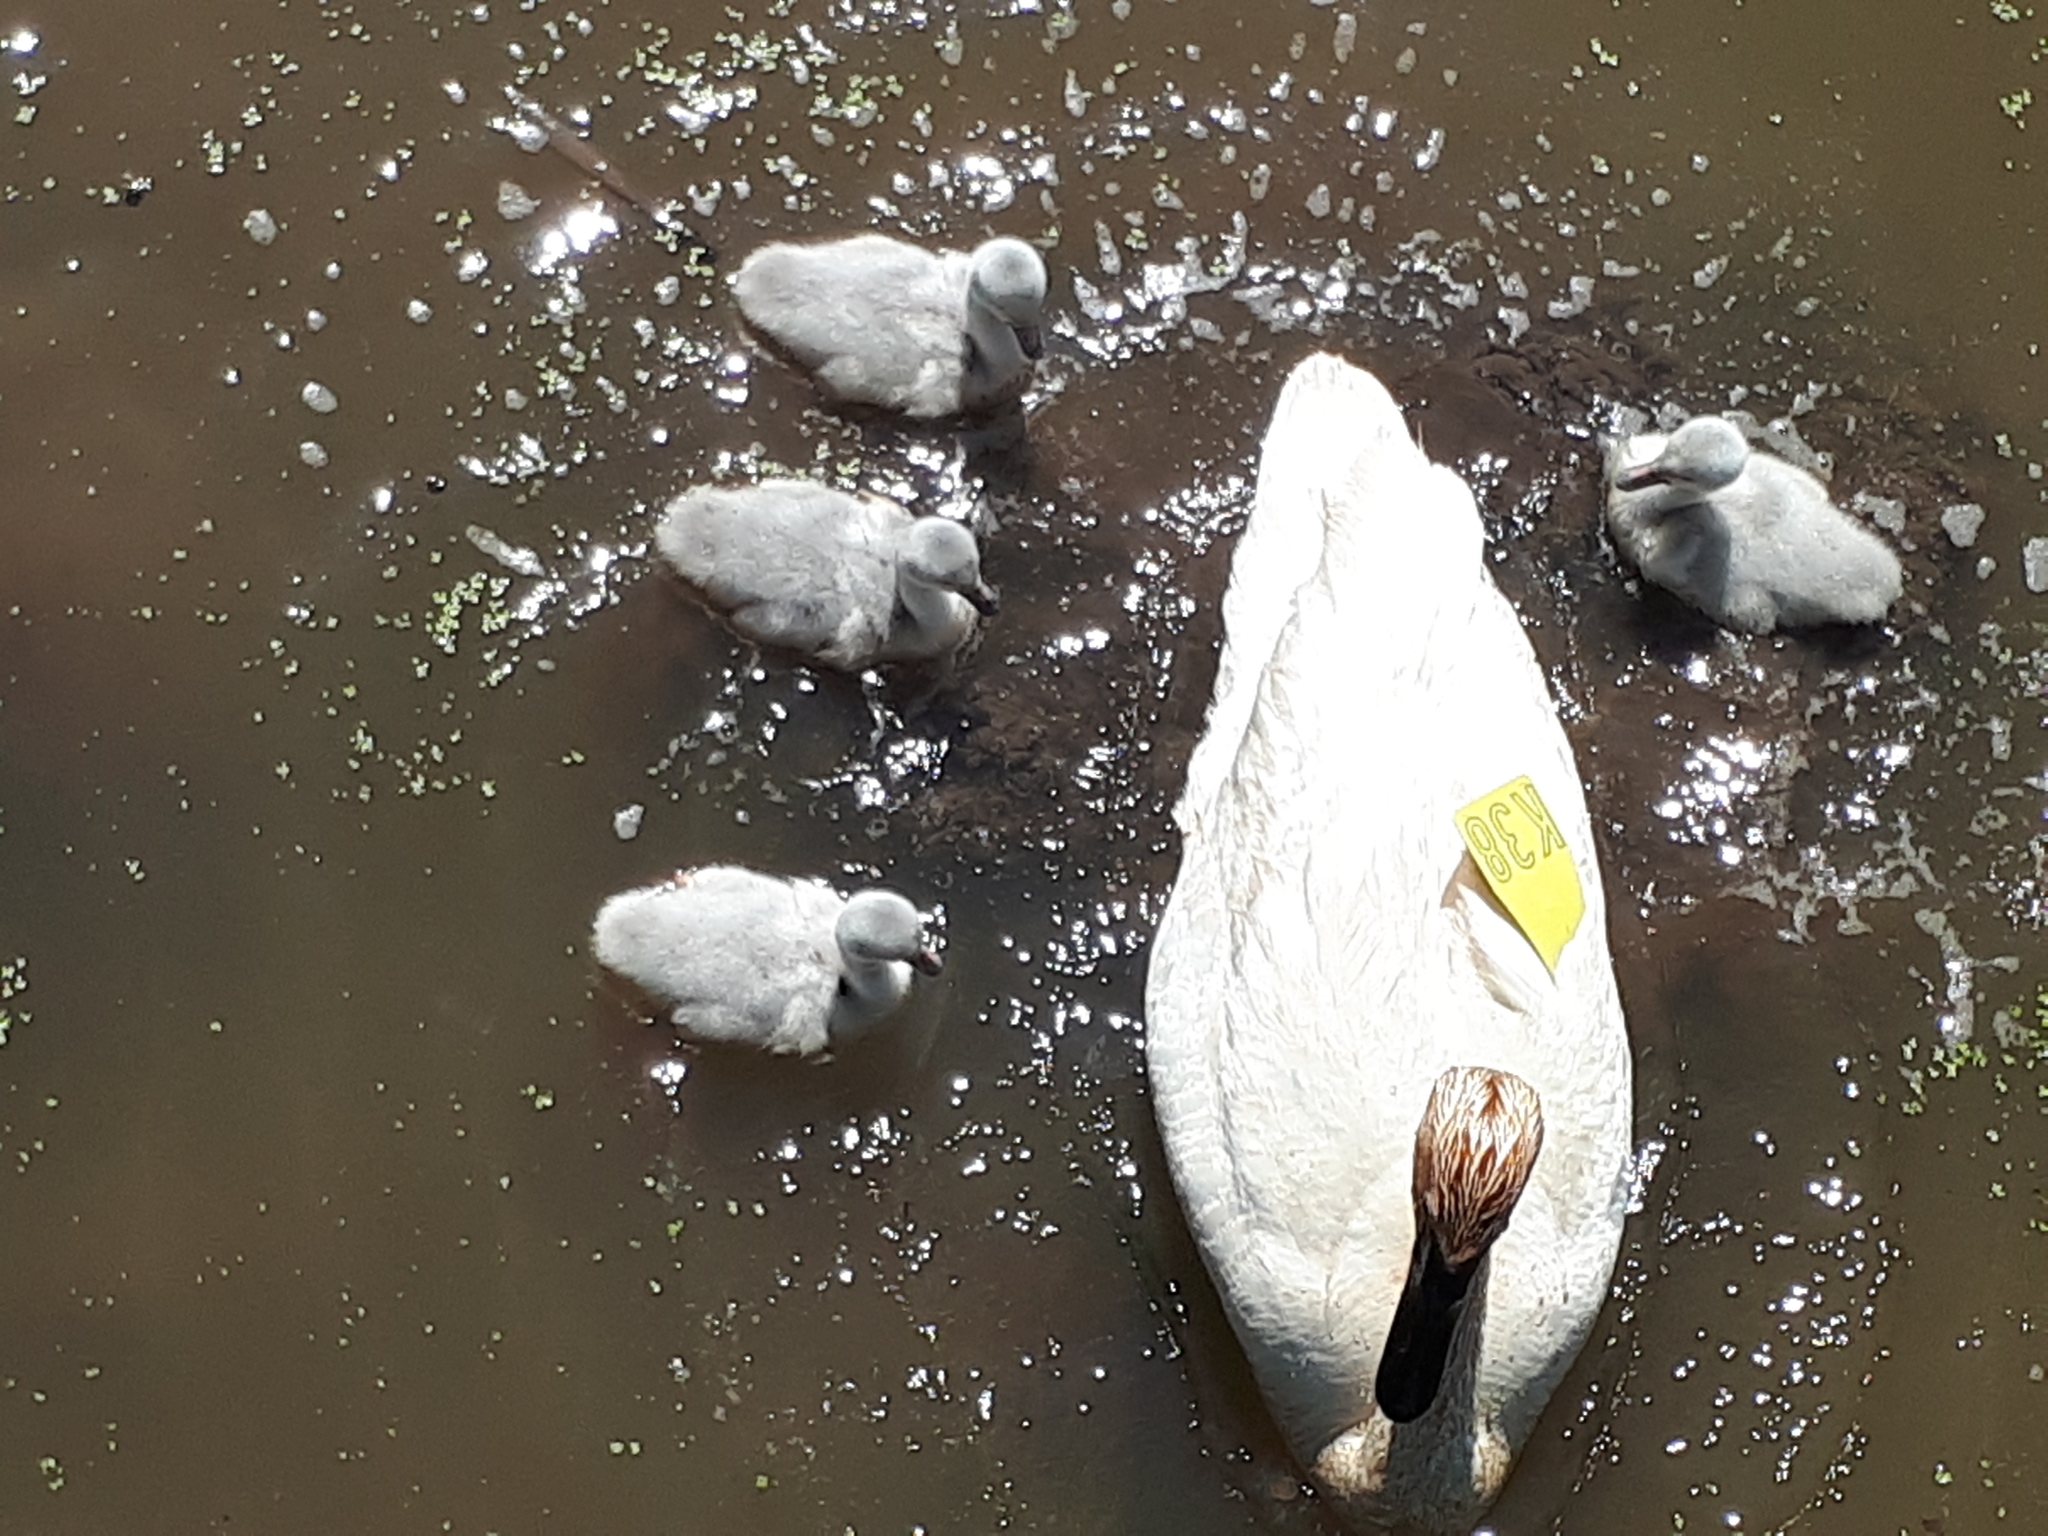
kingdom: Animalia
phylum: Chordata
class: Aves
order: Anseriformes
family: Anatidae
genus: Cygnus
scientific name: Cygnus buccinator
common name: Trumpeter swan
